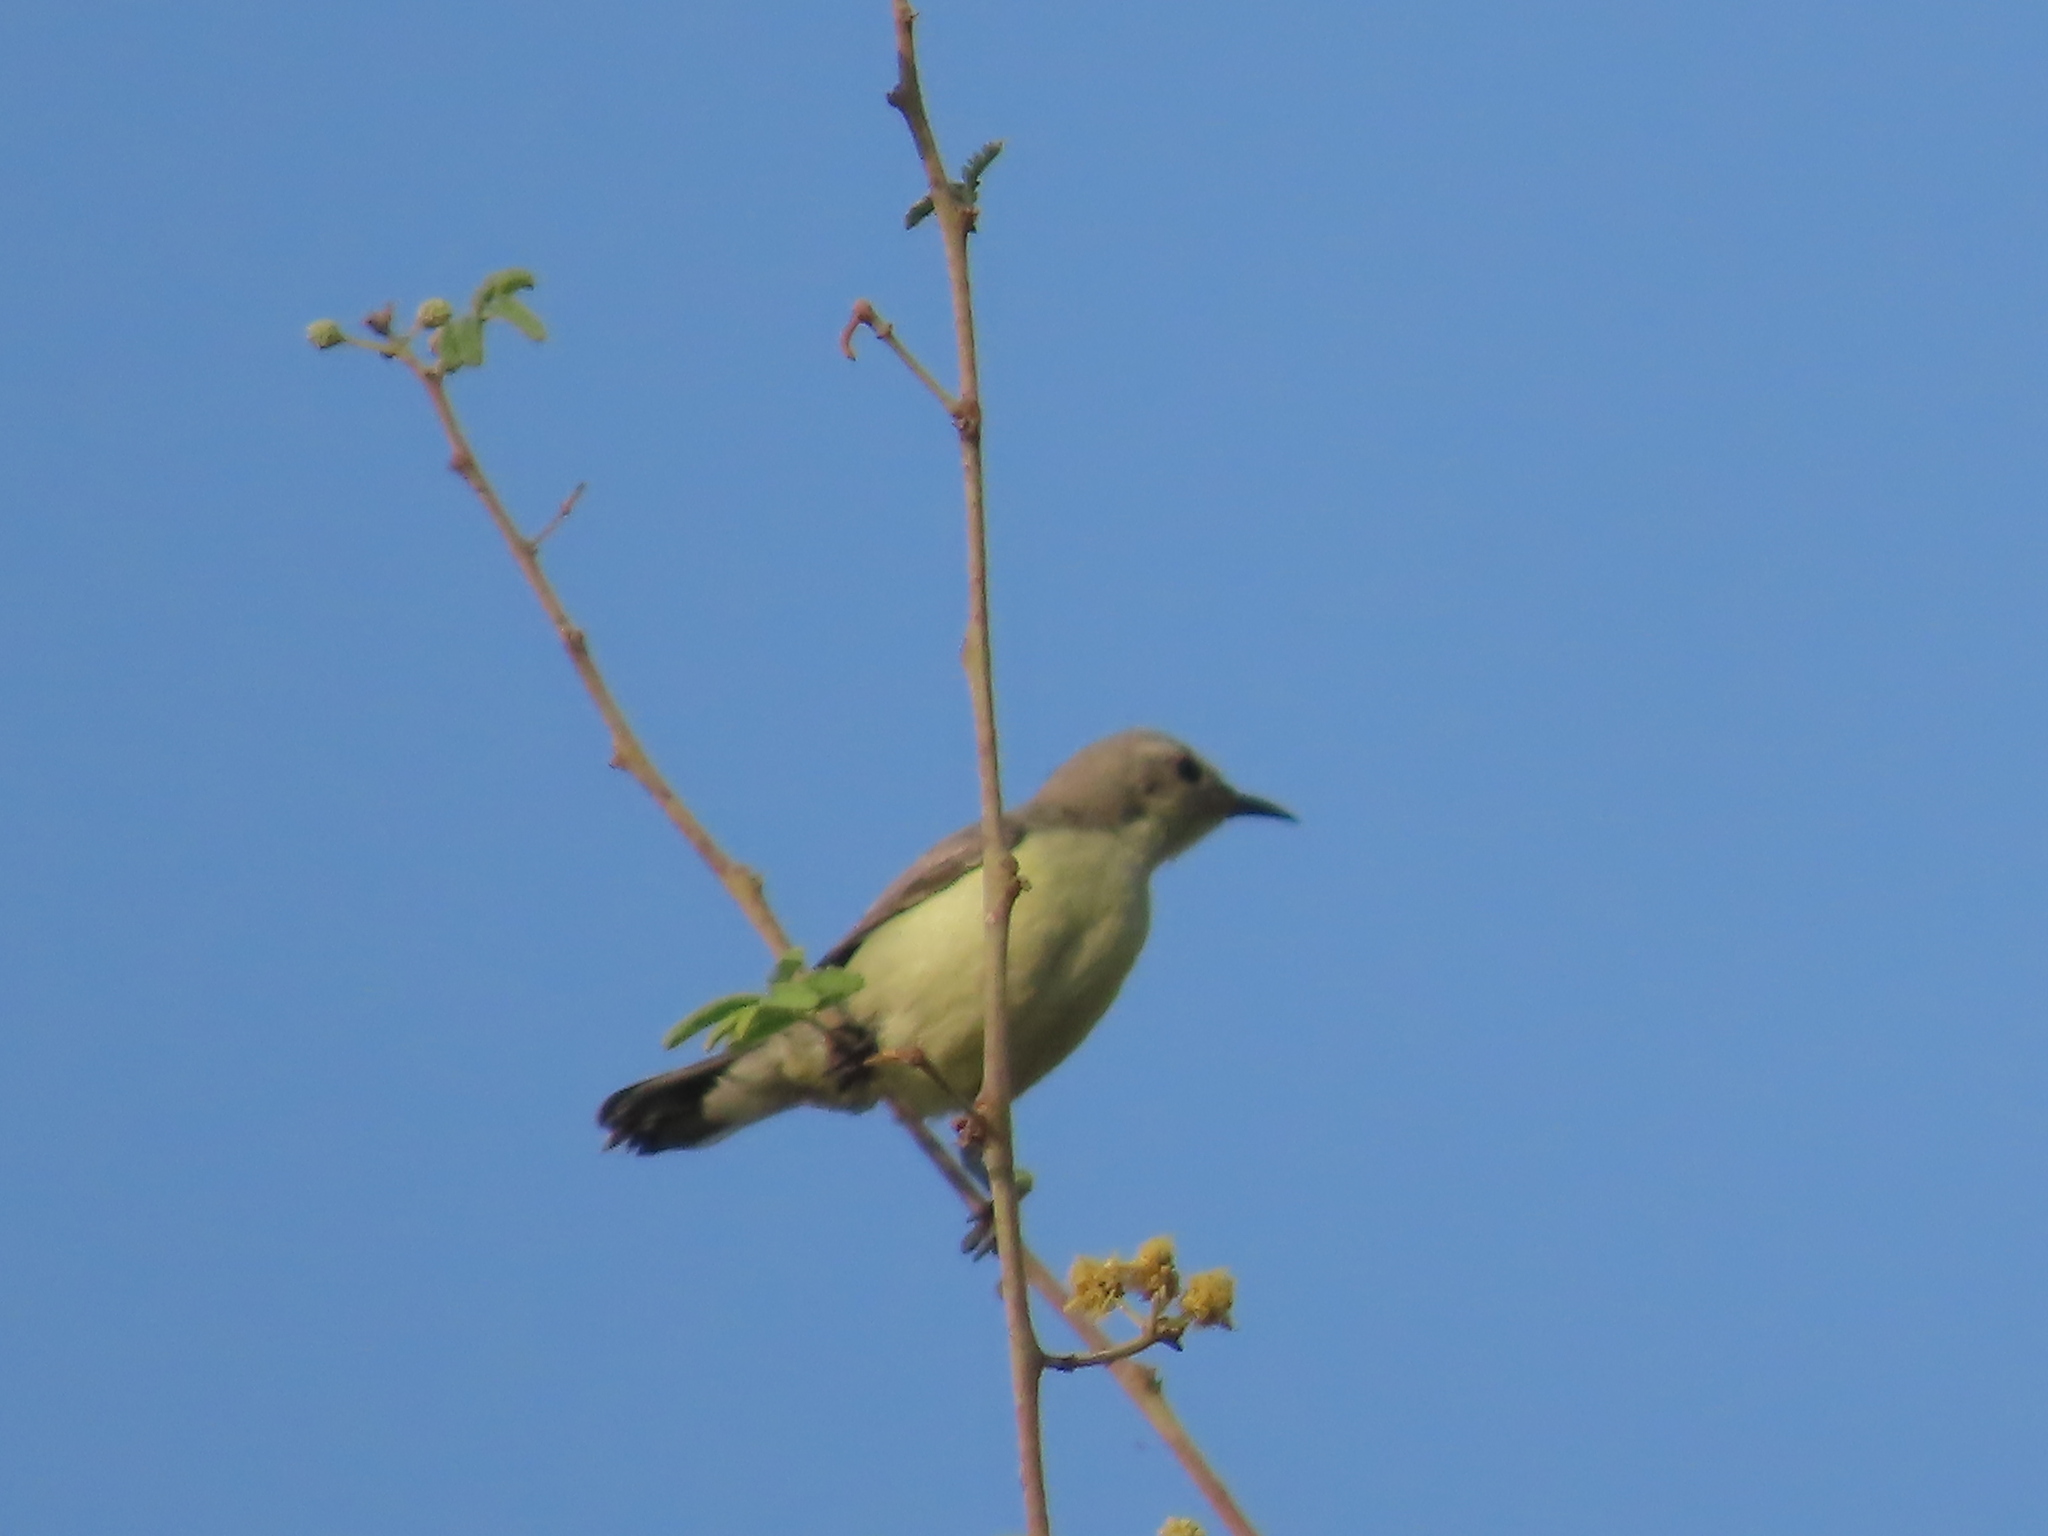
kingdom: Animalia
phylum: Chordata
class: Aves
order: Passeriformes
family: Nectariniidae
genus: Hedydipna
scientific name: Hedydipna metallica
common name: Nile valley sunbird
